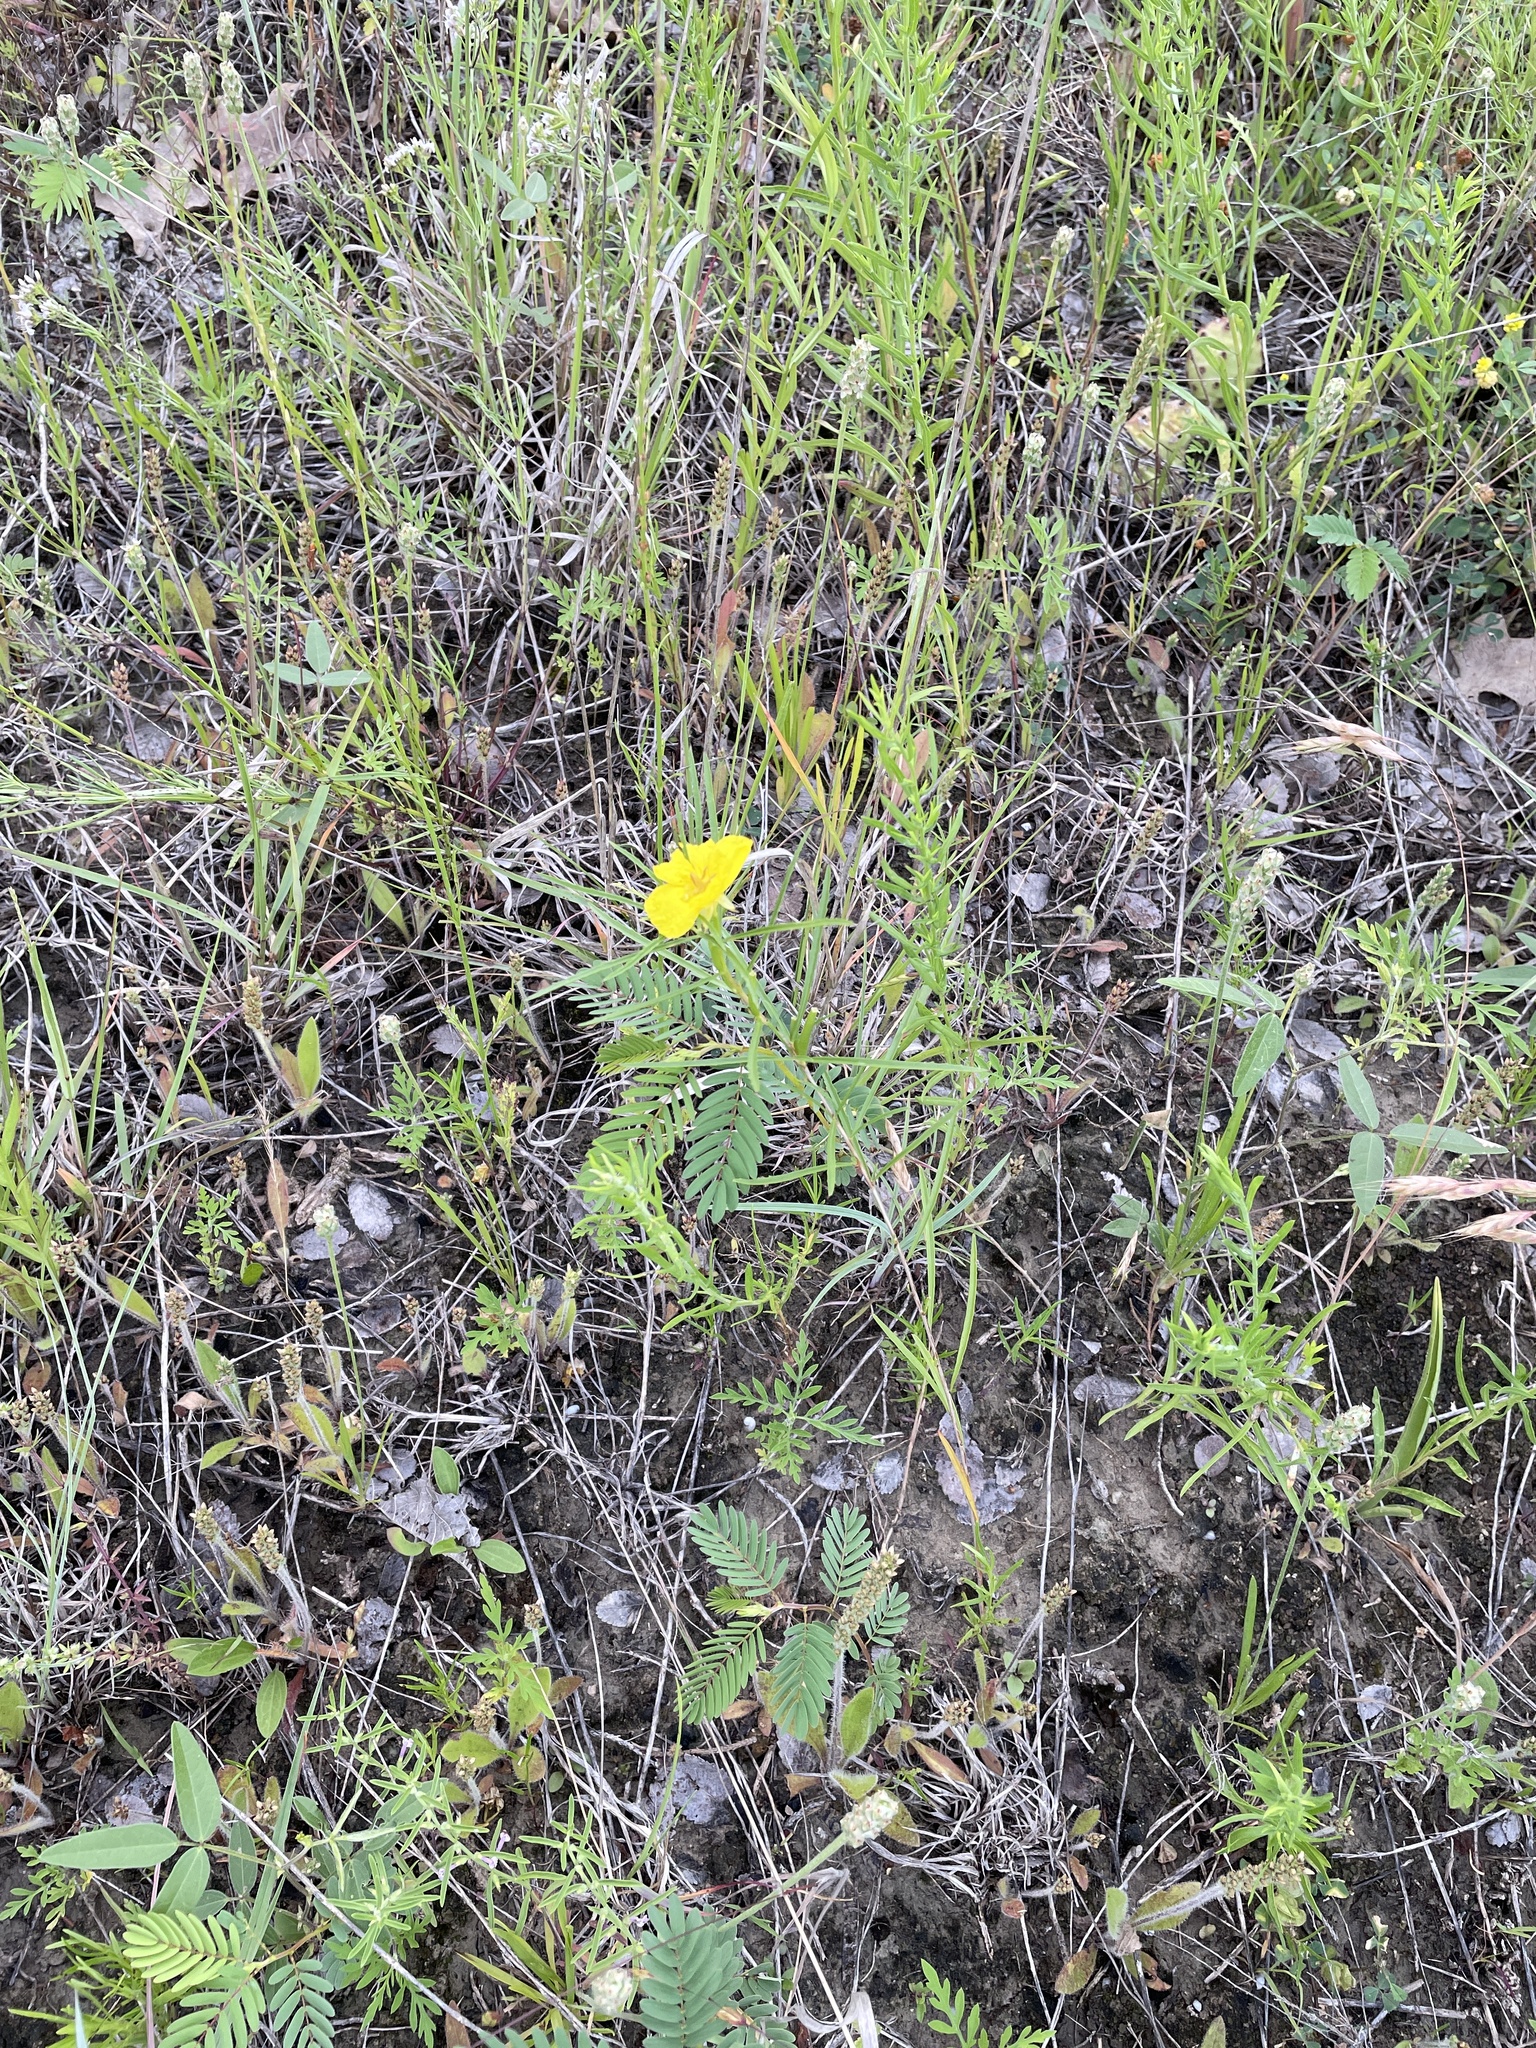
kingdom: Plantae
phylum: Tracheophyta
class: Magnoliopsida
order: Myrtales
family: Onagraceae
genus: Oenothera
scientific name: Oenothera
